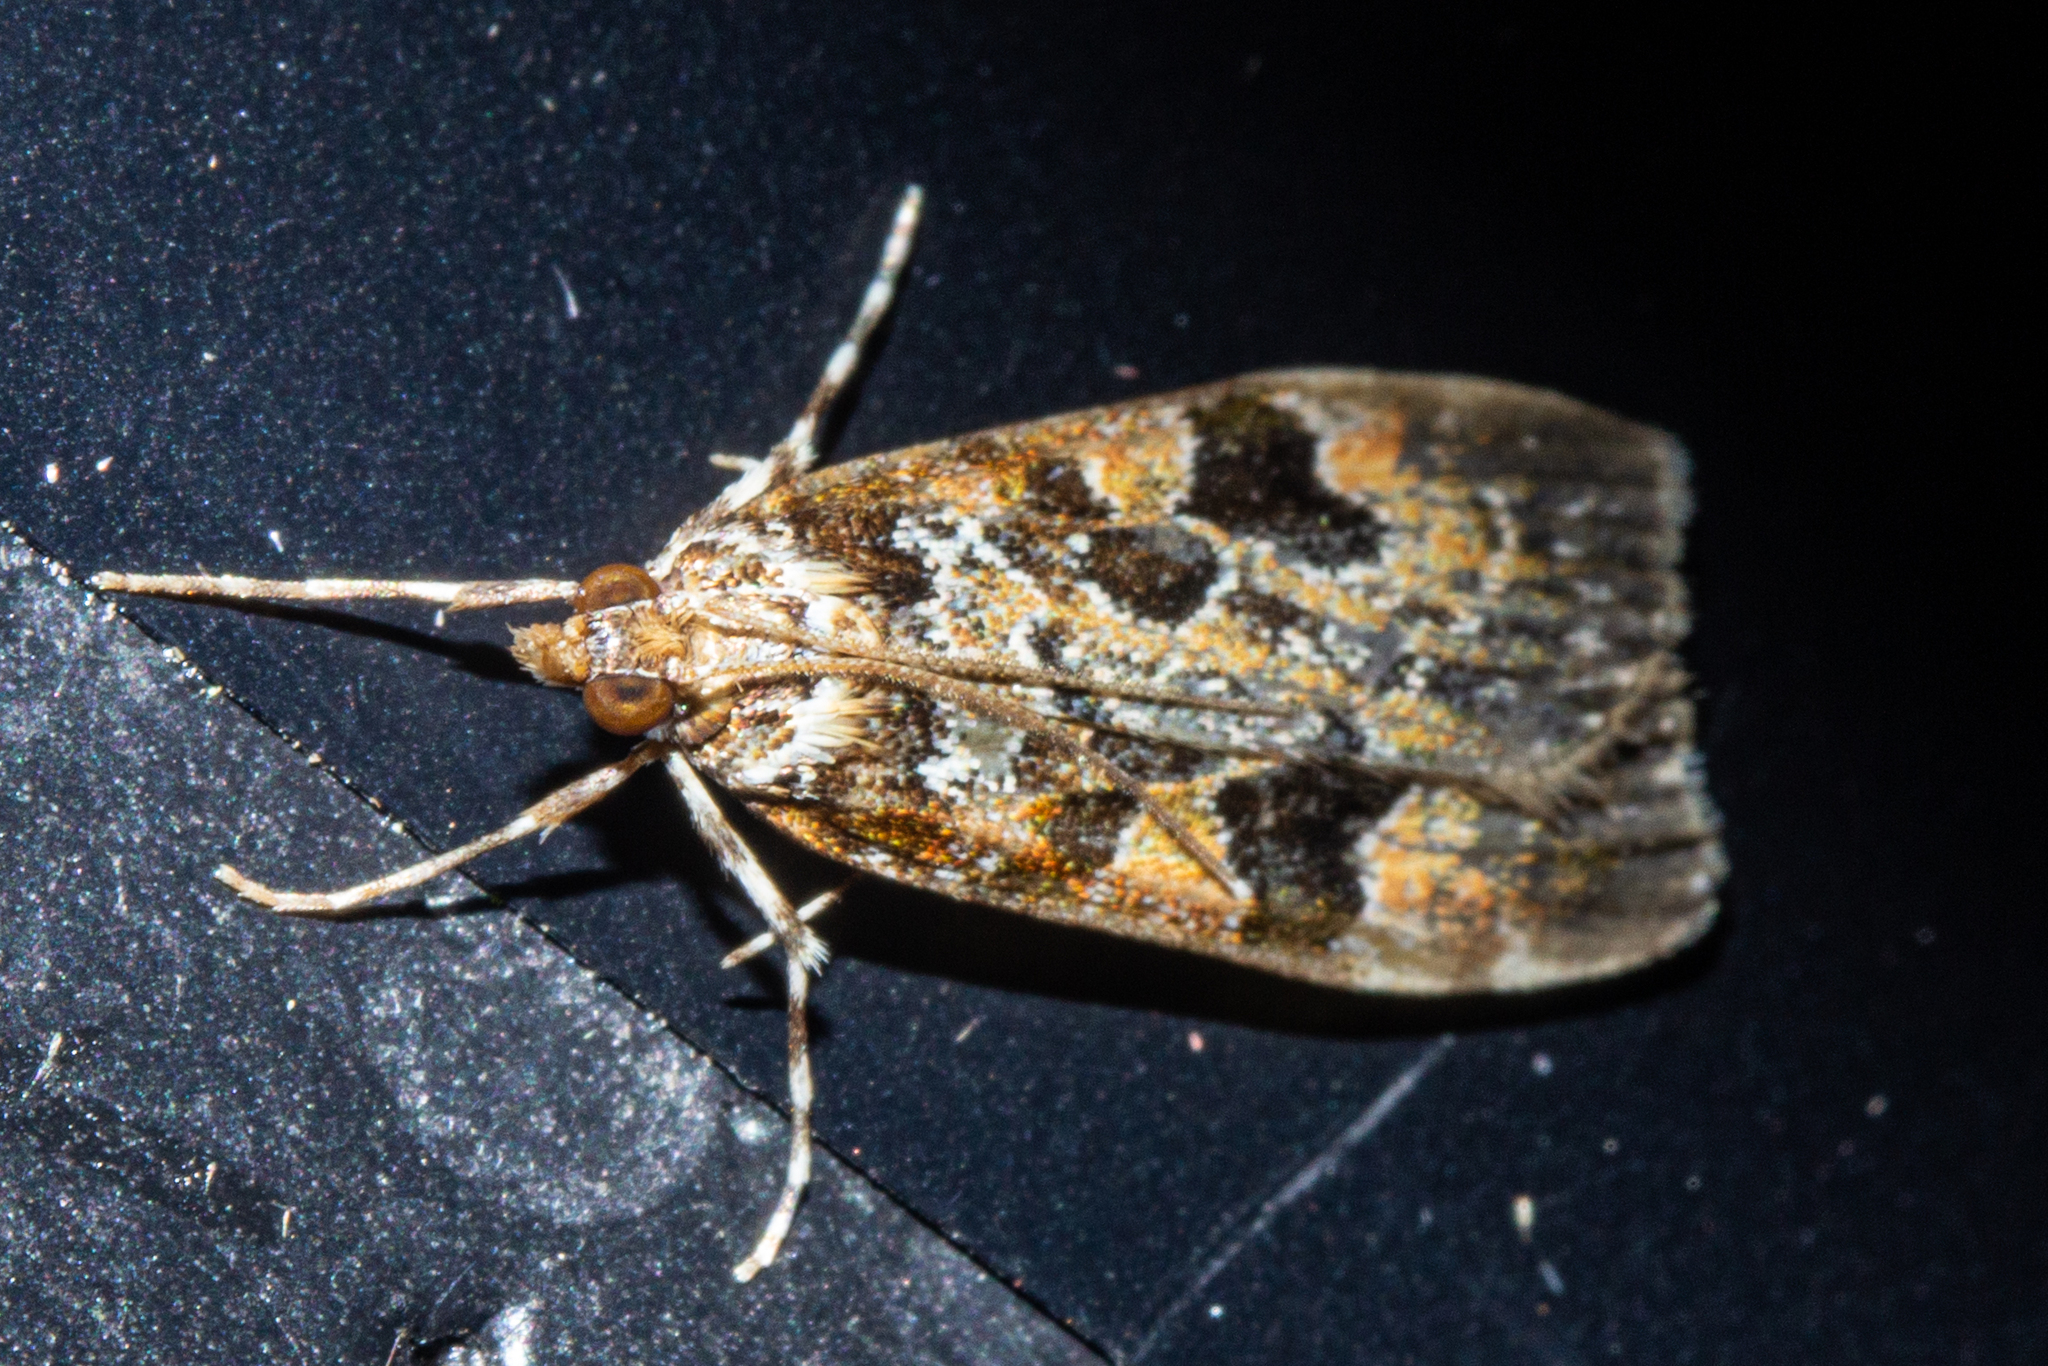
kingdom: Animalia
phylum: Arthropoda
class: Insecta
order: Lepidoptera
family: Crambidae
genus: Scoparia
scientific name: Scoparia ustimacula
